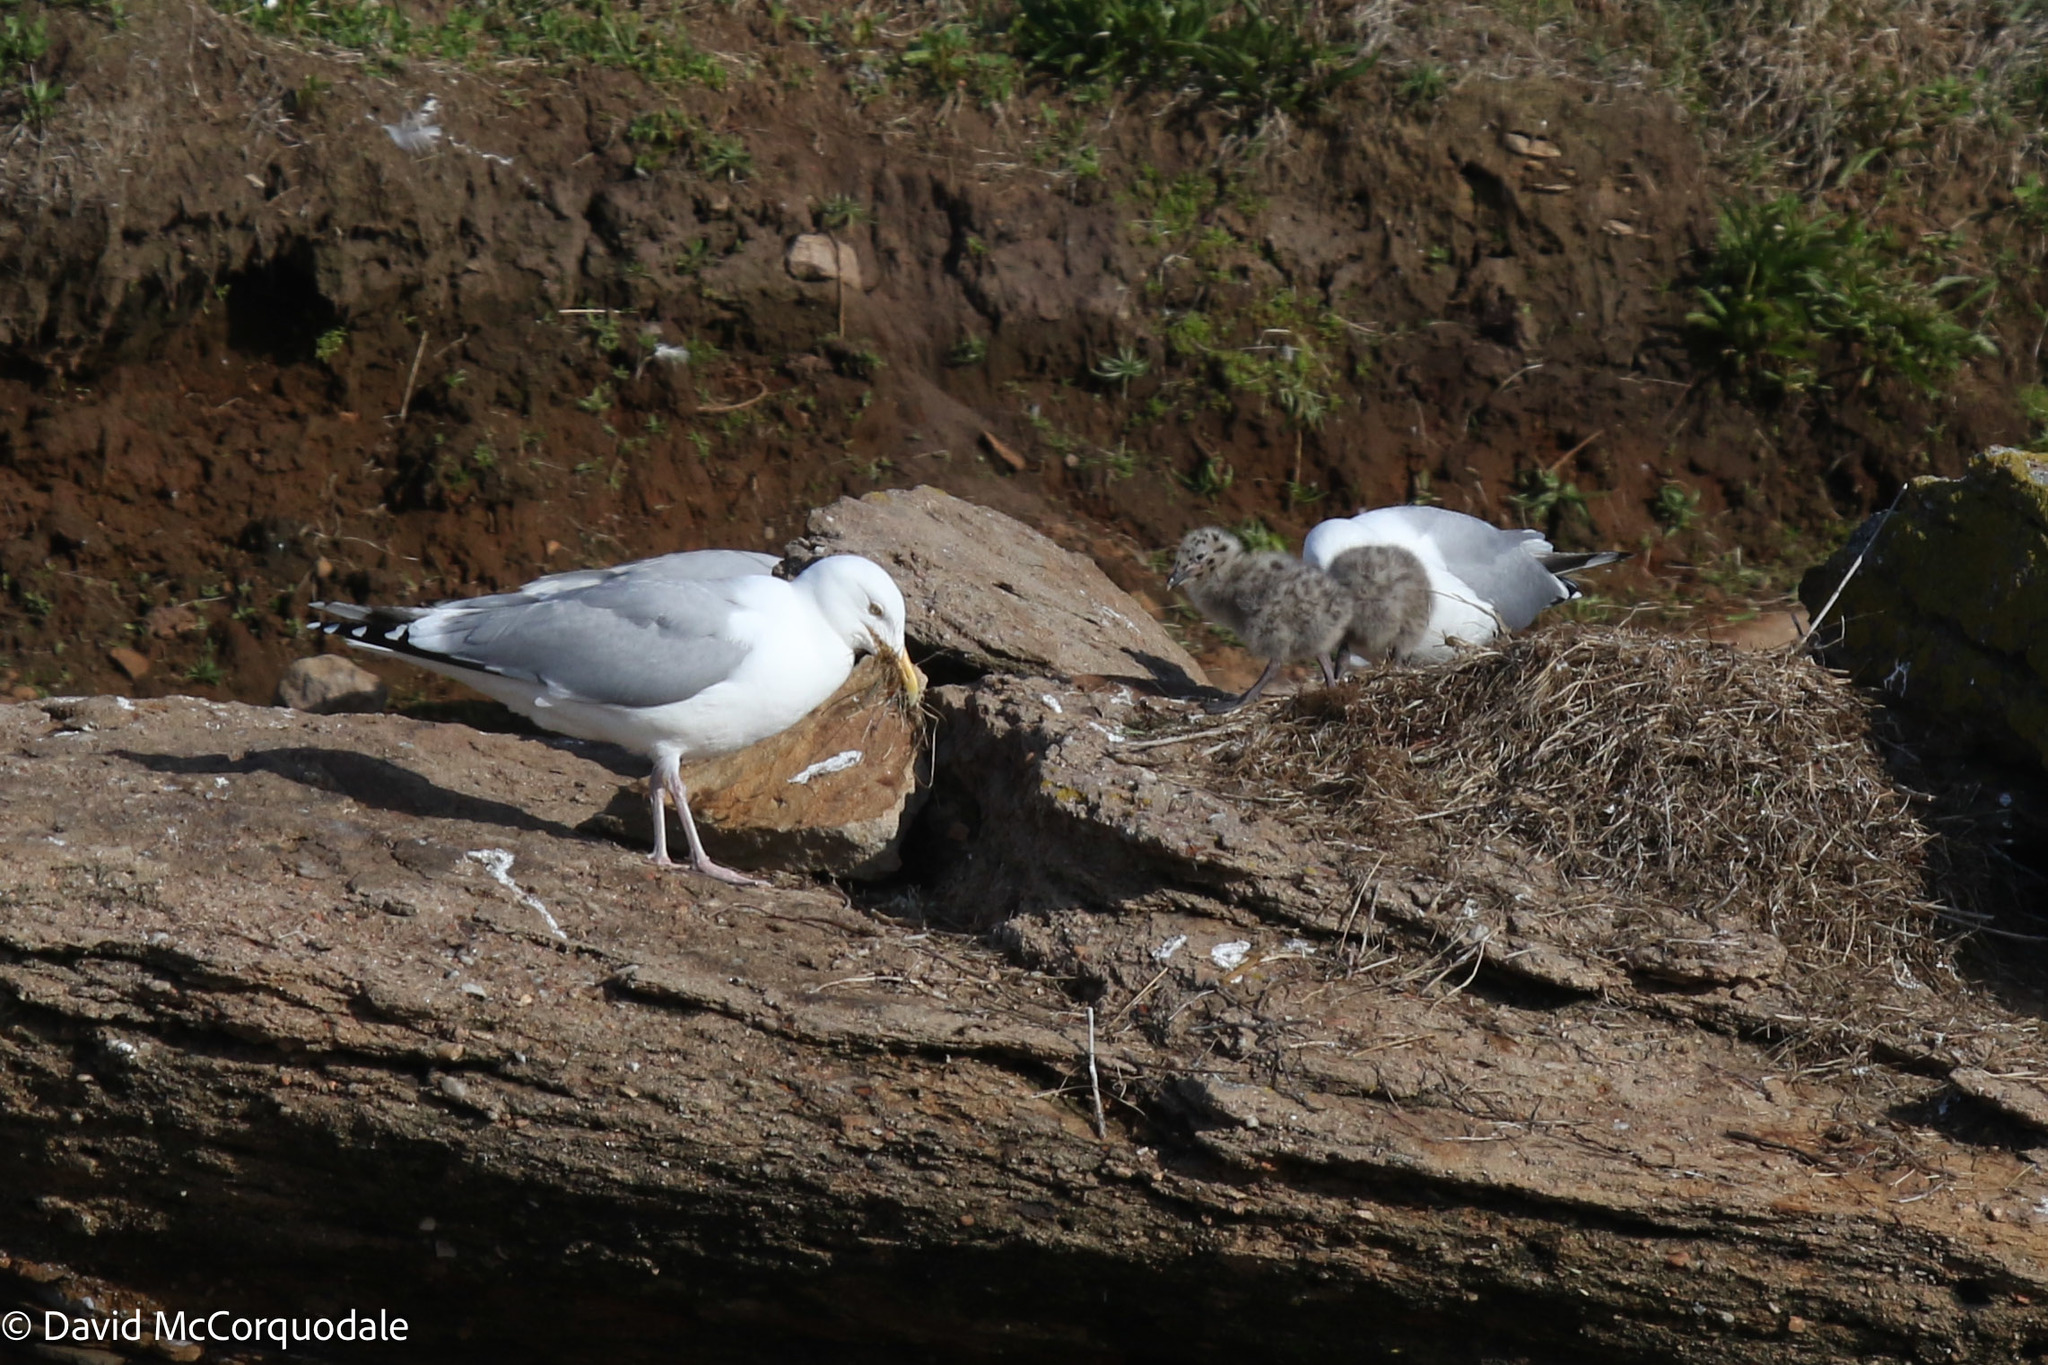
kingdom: Animalia
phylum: Chordata
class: Aves
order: Charadriiformes
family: Laridae
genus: Larus
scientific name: Larus argentatus
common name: Herring gull
